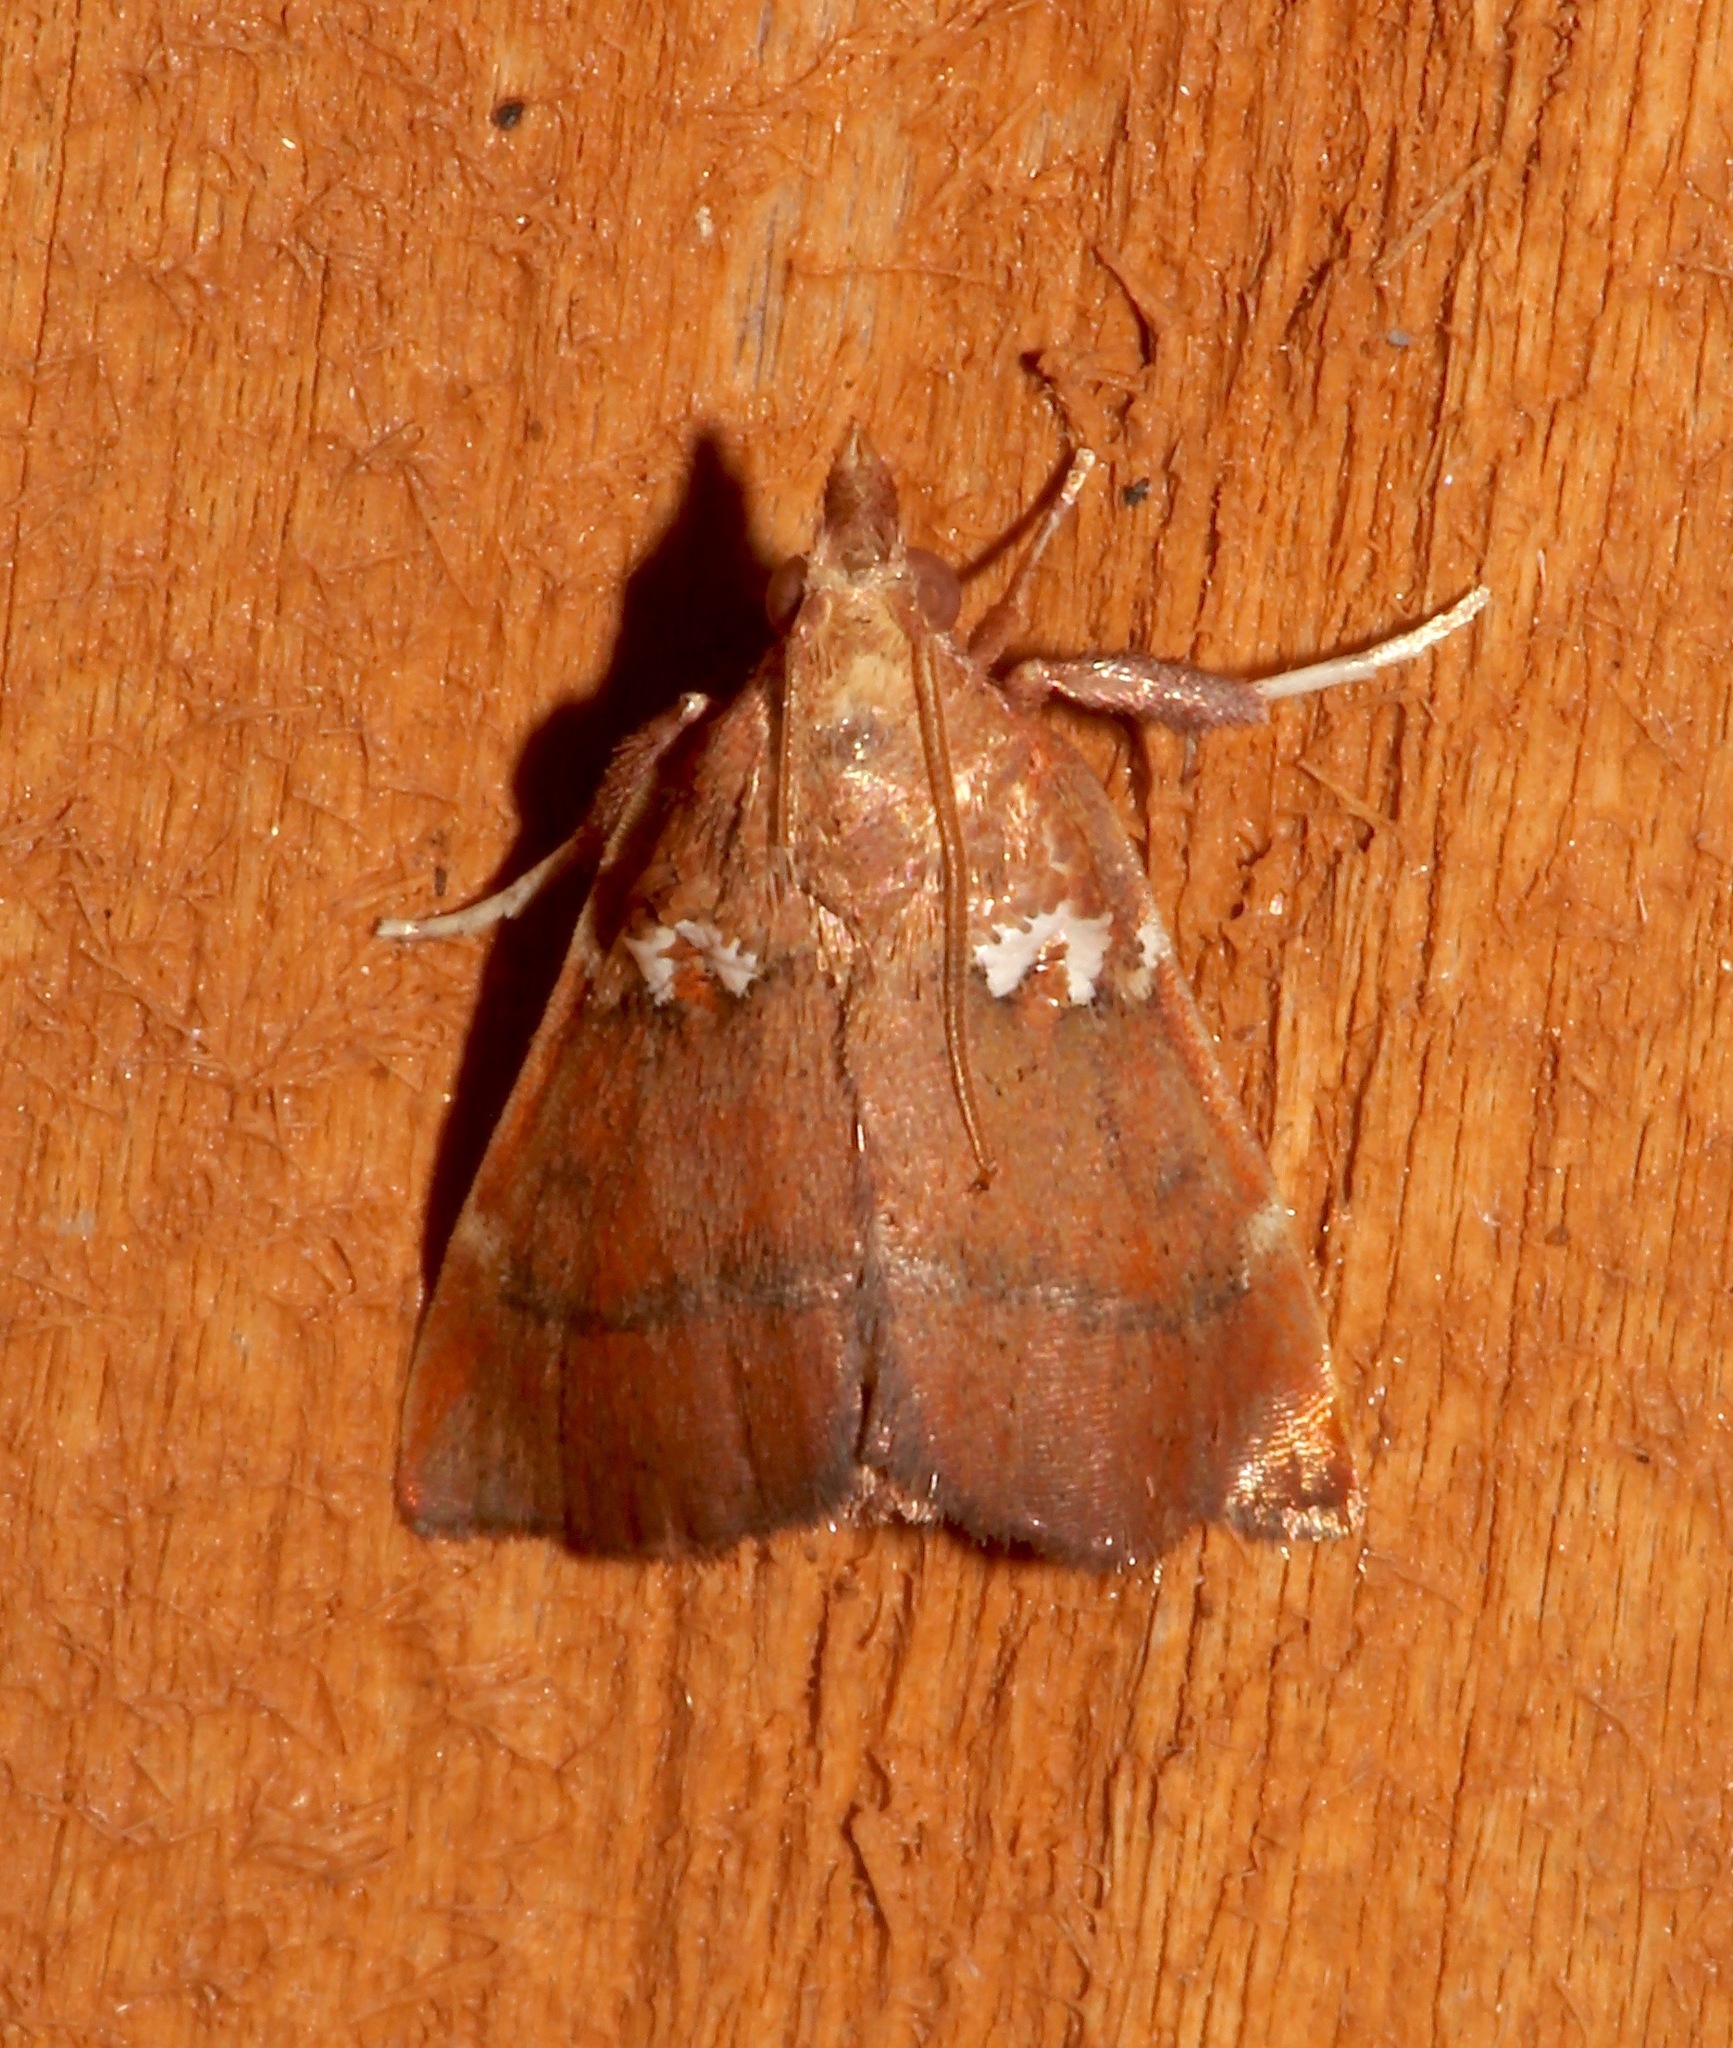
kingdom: Animalia
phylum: Arthropoda
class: Insecta
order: Lepidoptera
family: Pyralidae
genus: Lepidomys
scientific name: Lepidomys irrenosa
